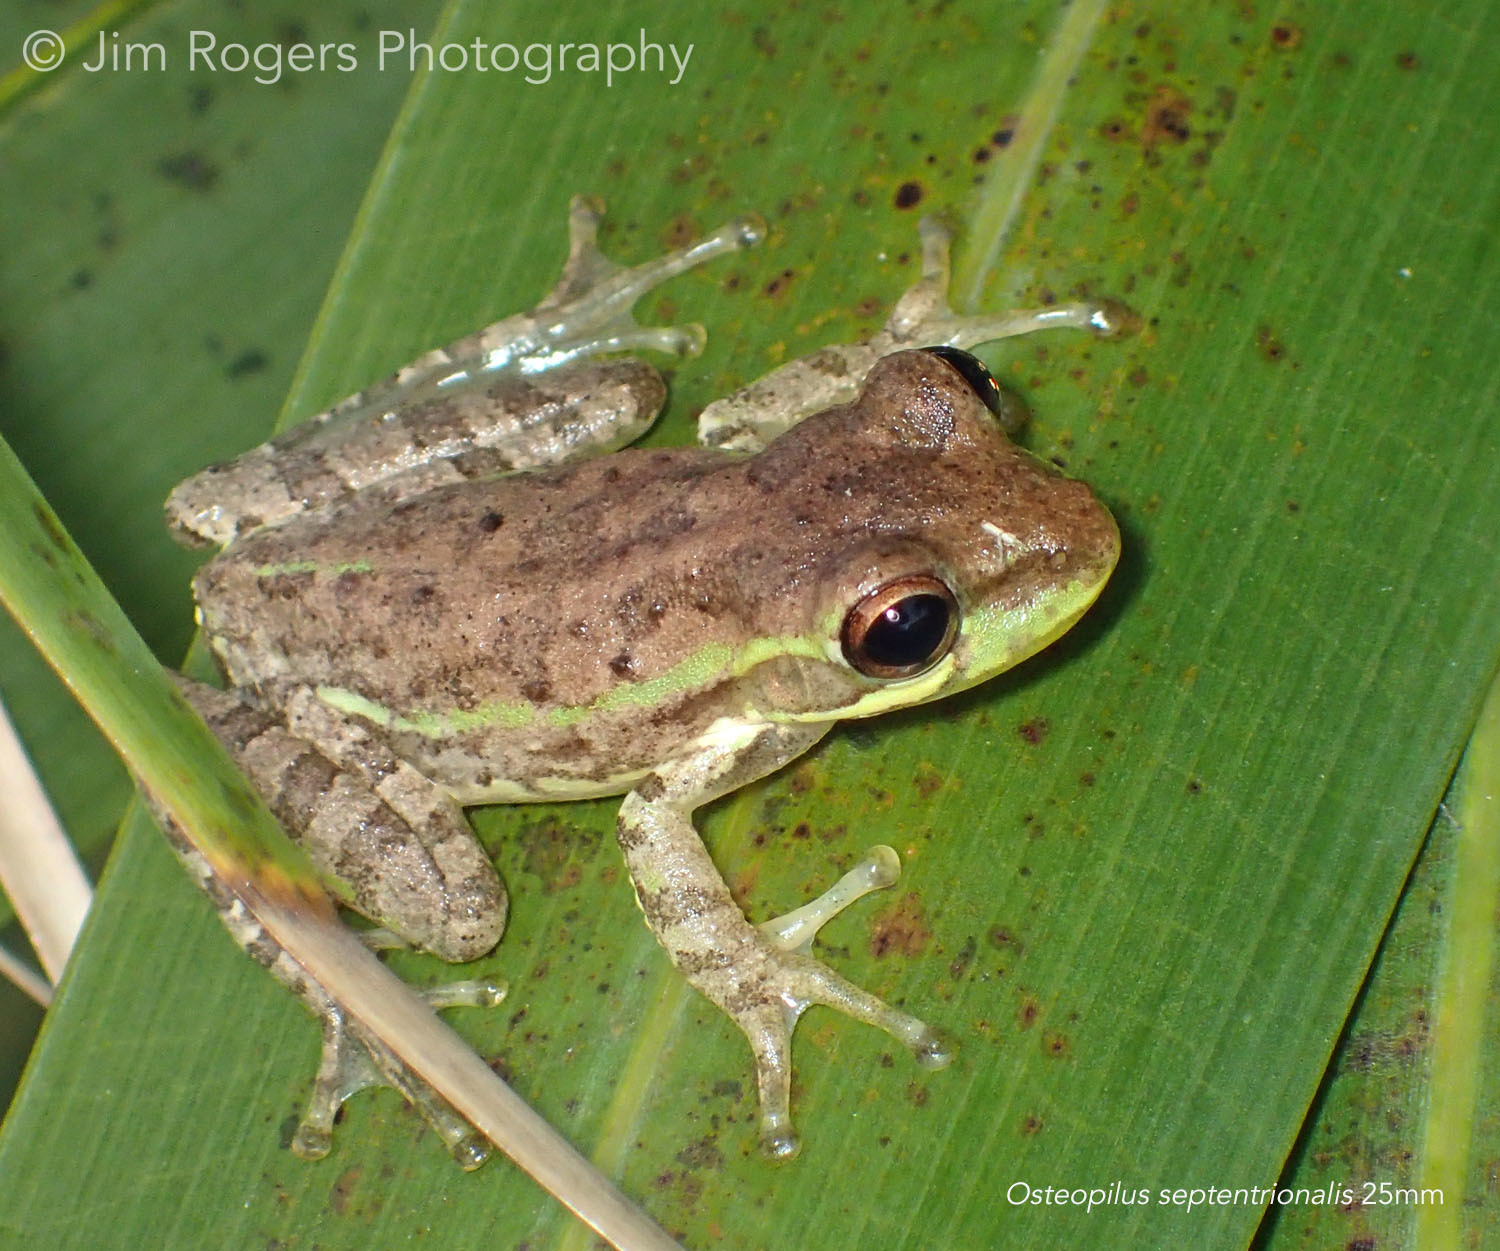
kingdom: Animalia
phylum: Chordata
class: Amphibia
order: Anura
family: Hylidae
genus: Osteopilus
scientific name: Osteopilus septentrionalis
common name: Cuban treefrog
